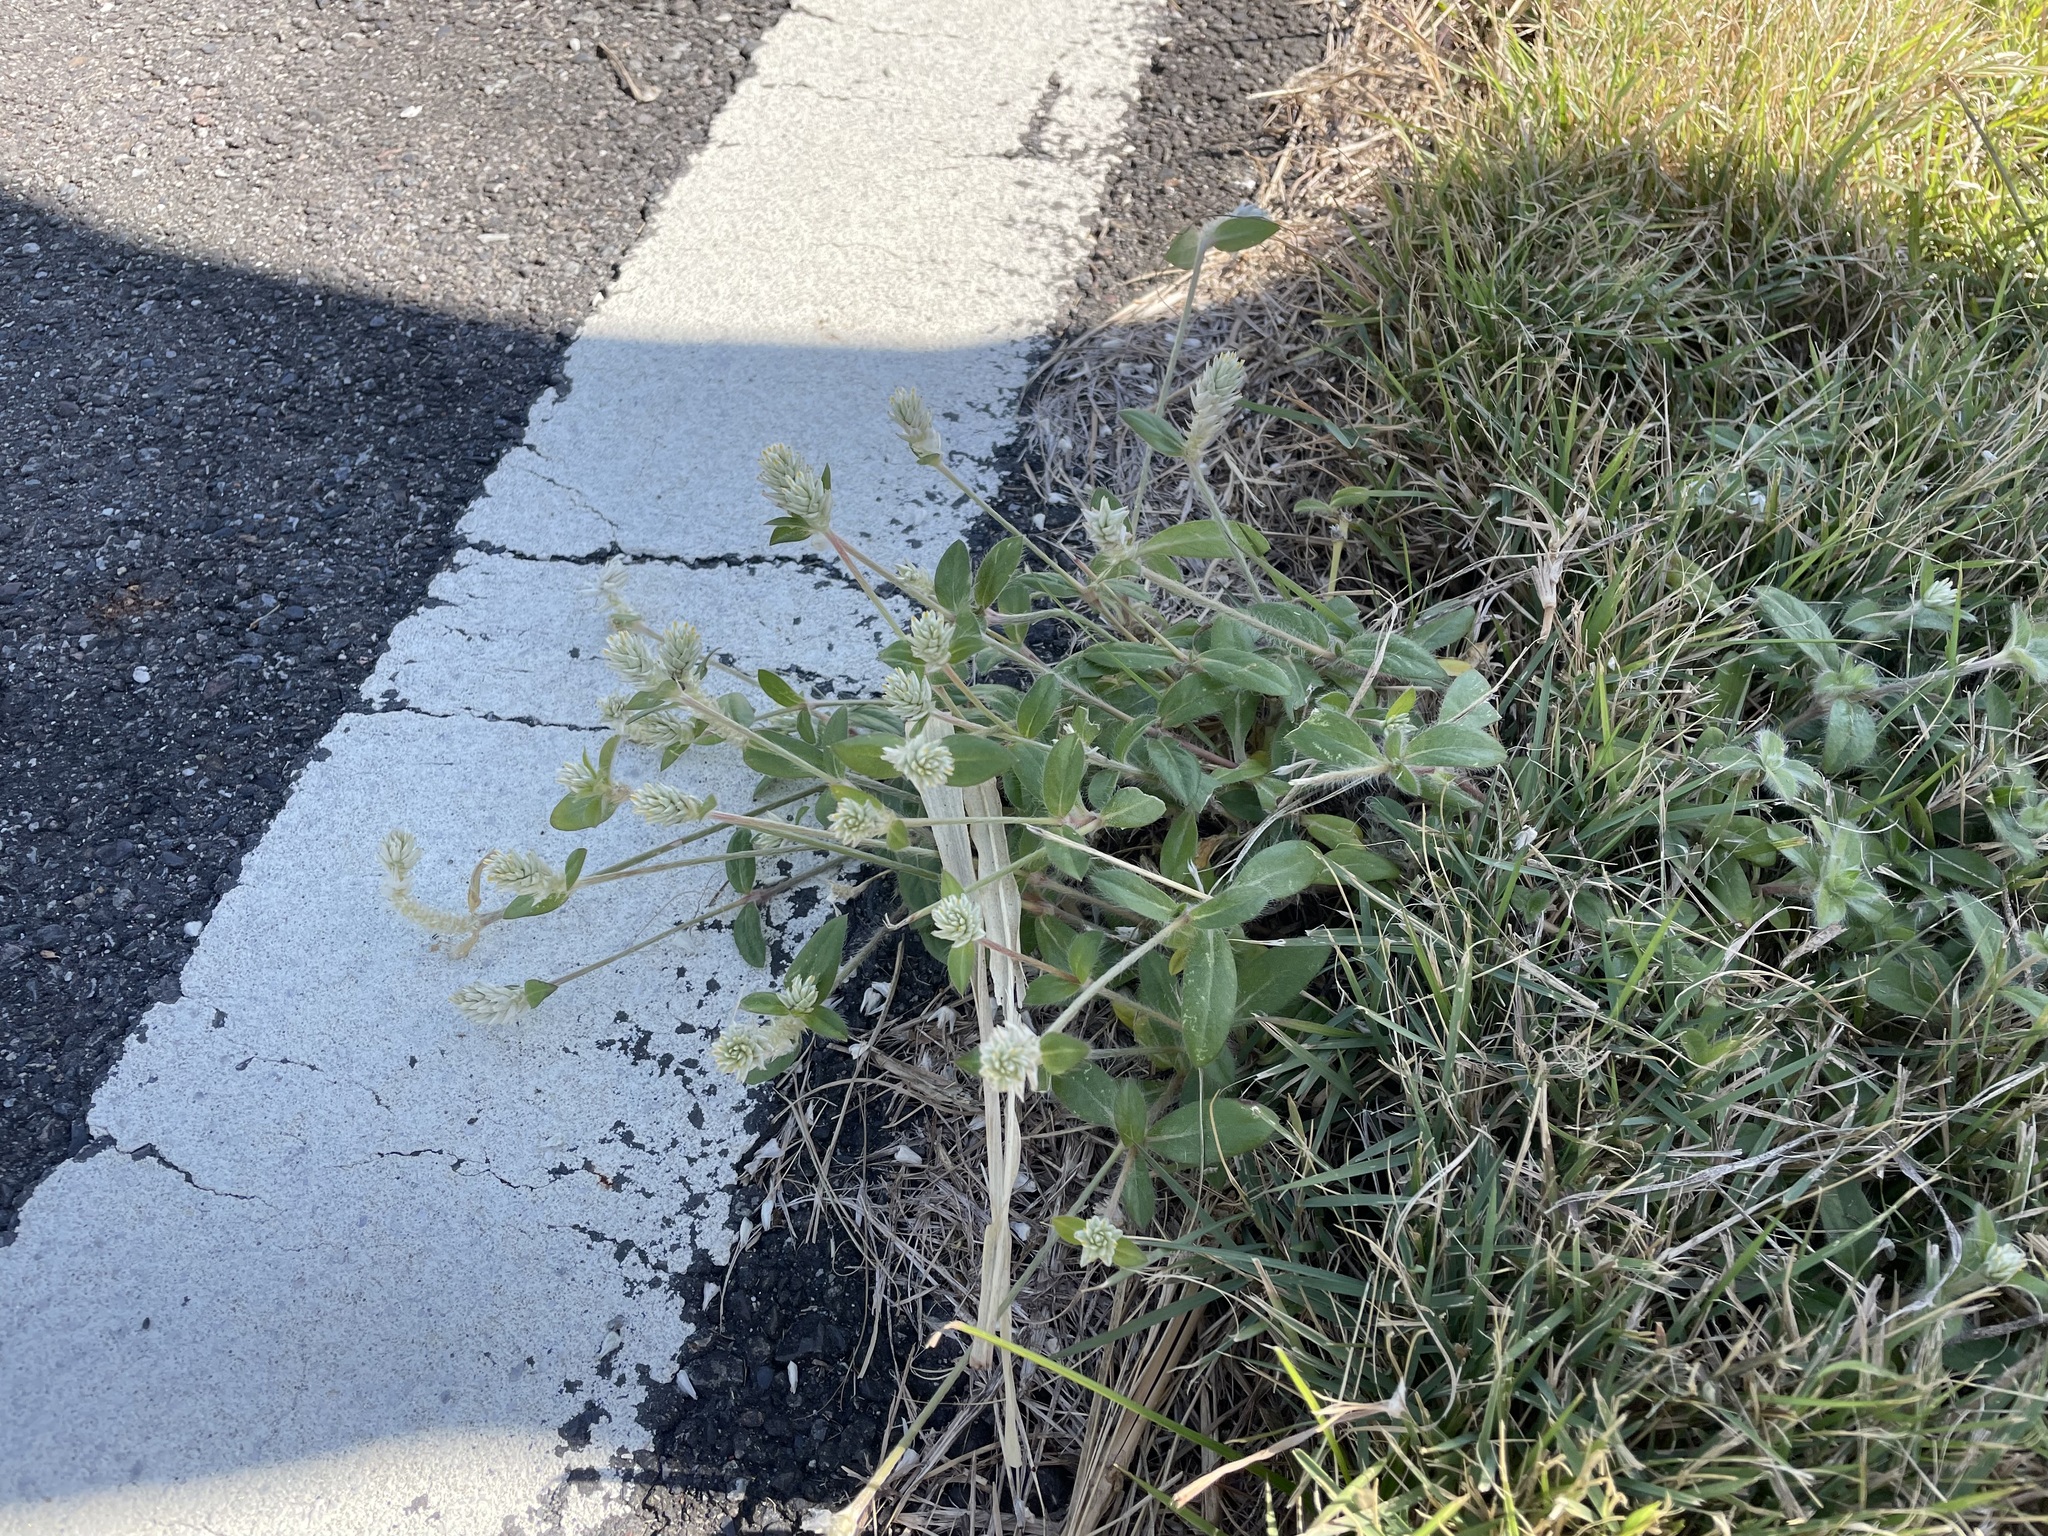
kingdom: Plantae
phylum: Tracheophyta
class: Magnoliopsida
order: Caryophyllales
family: Amaranthaceae
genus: Gomphrena
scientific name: Gomphrena celosioides
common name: Gomphrena-weed
